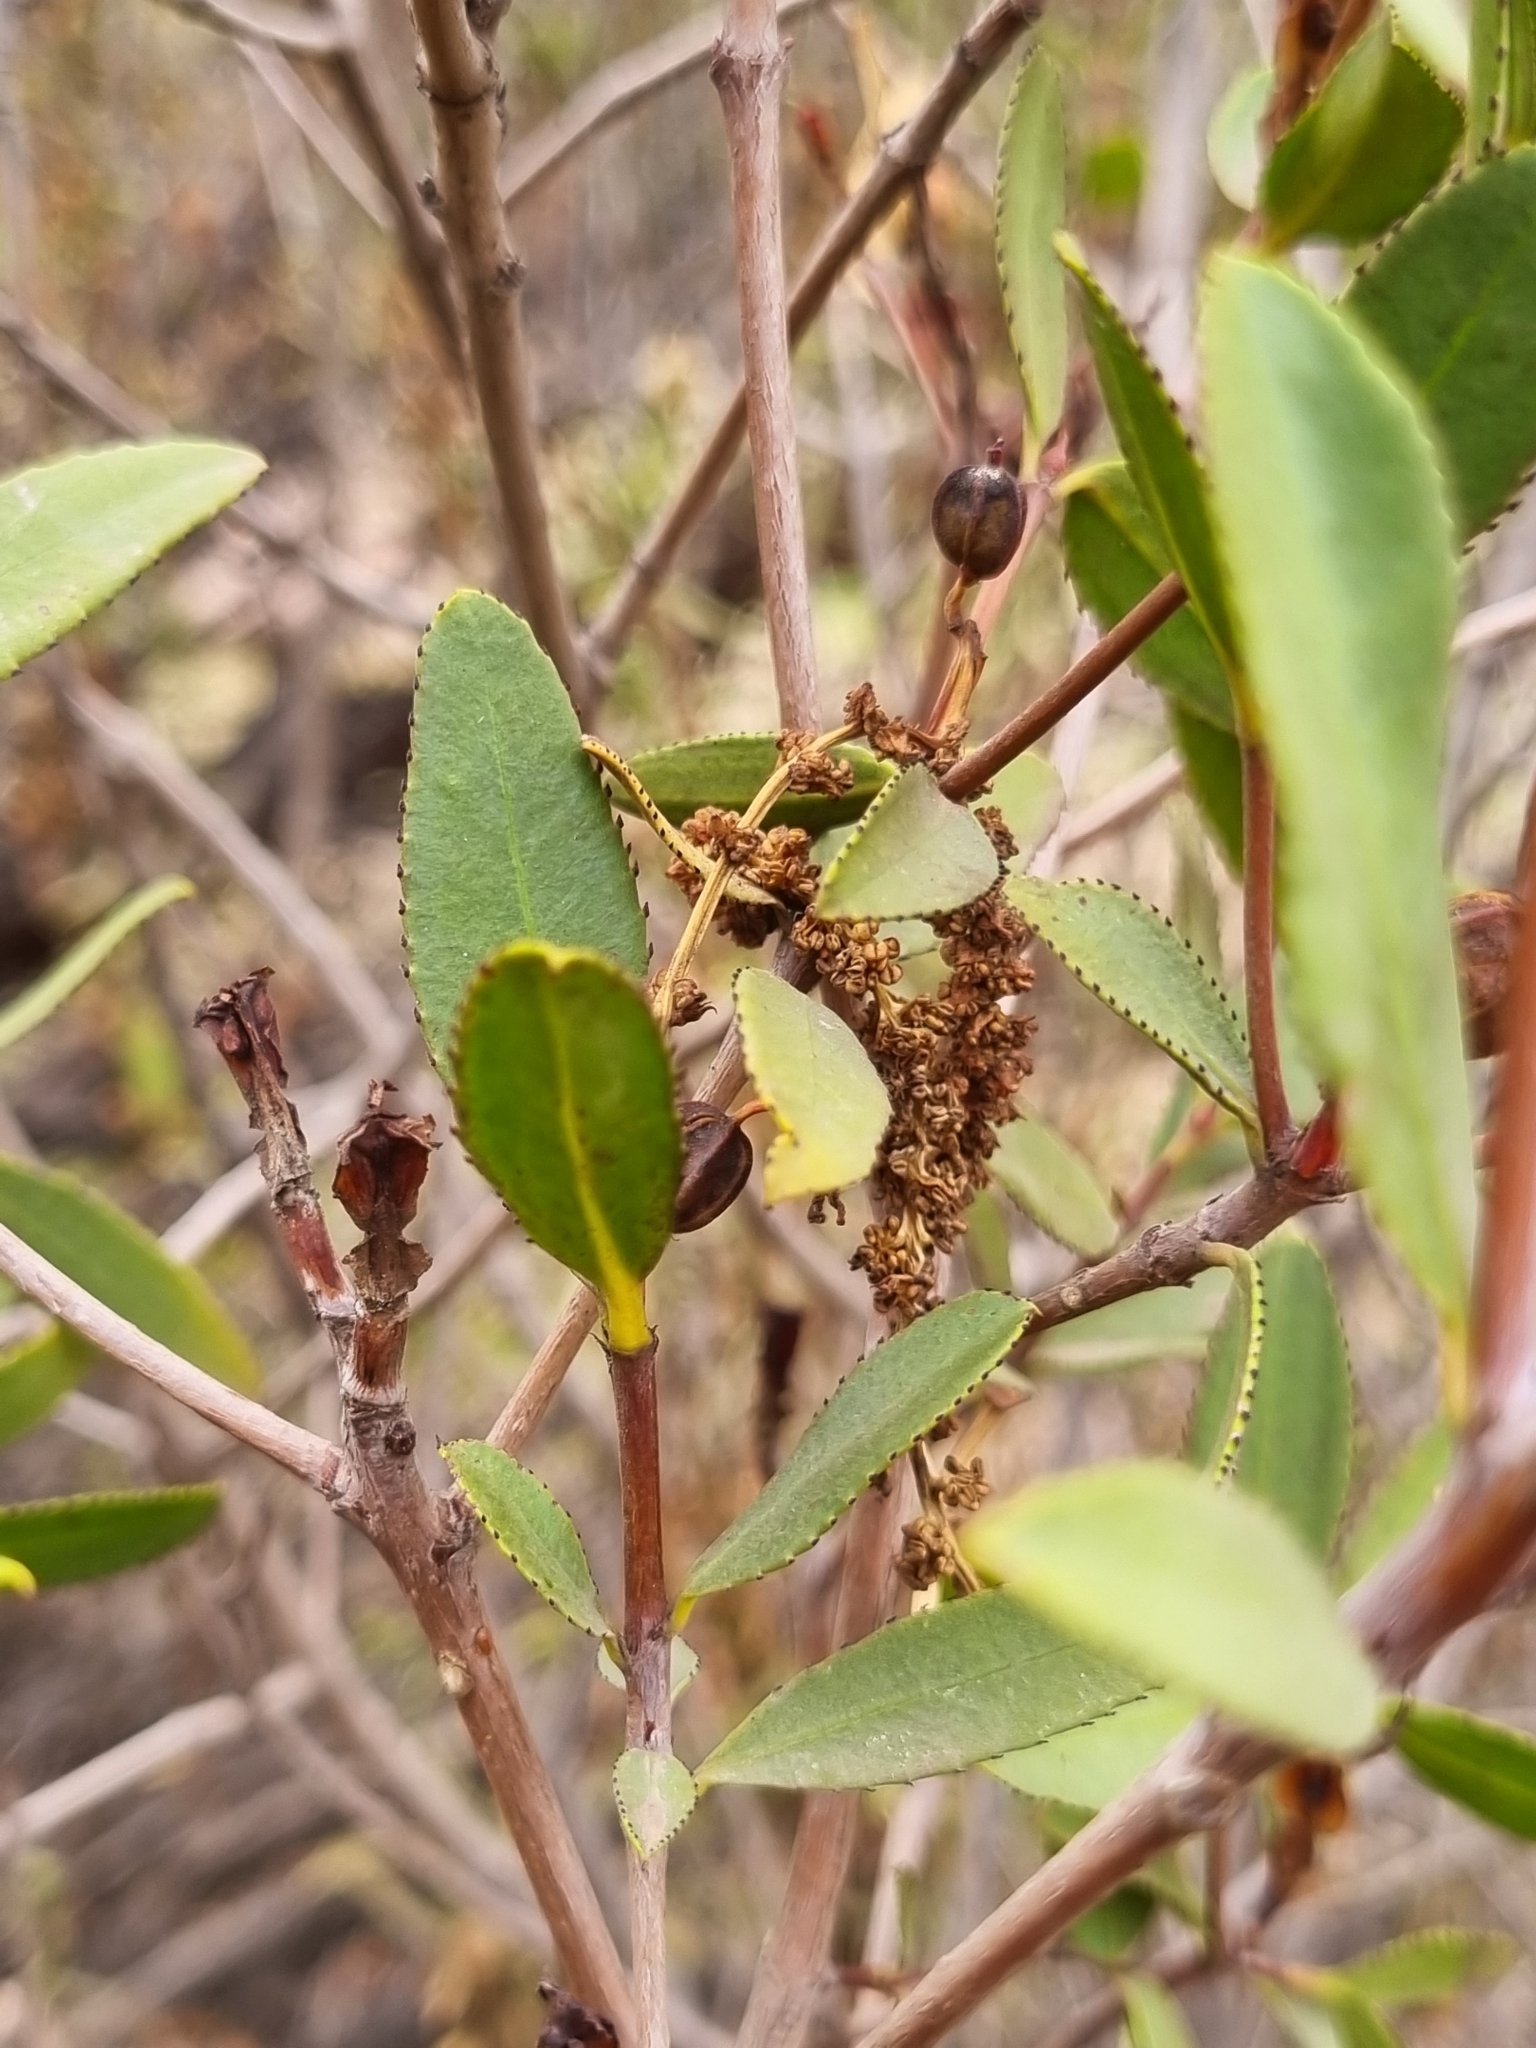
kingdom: Plantae
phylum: Tracheophyta
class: Magnoliopsida
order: Malpighiales
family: Euphorbiaceae
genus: Colliguaja
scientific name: Colliguaja odorifera
